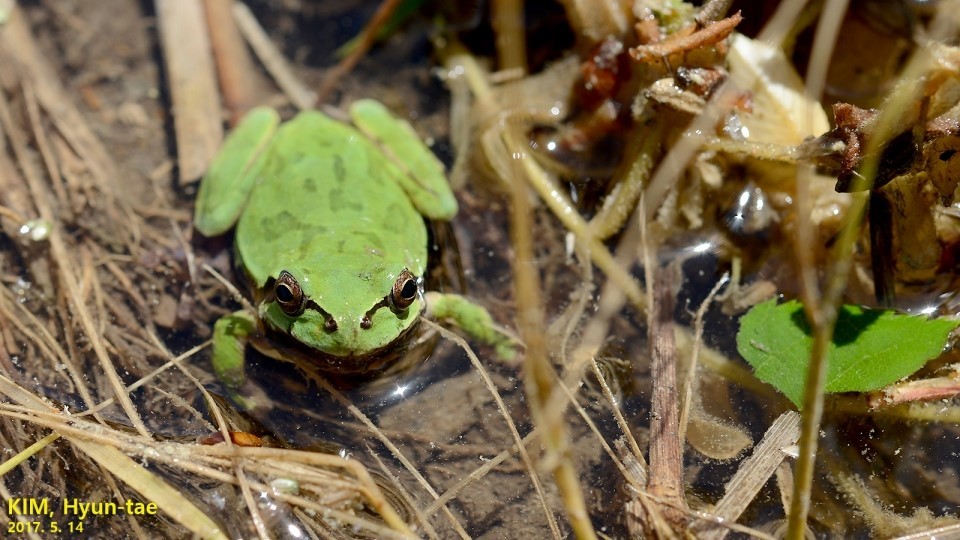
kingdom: Animalia
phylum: Chordata
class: Amphibia
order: Anura
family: Hylidae
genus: Dryophytes
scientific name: Dryophytes japonicus
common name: Japanese treefrog
